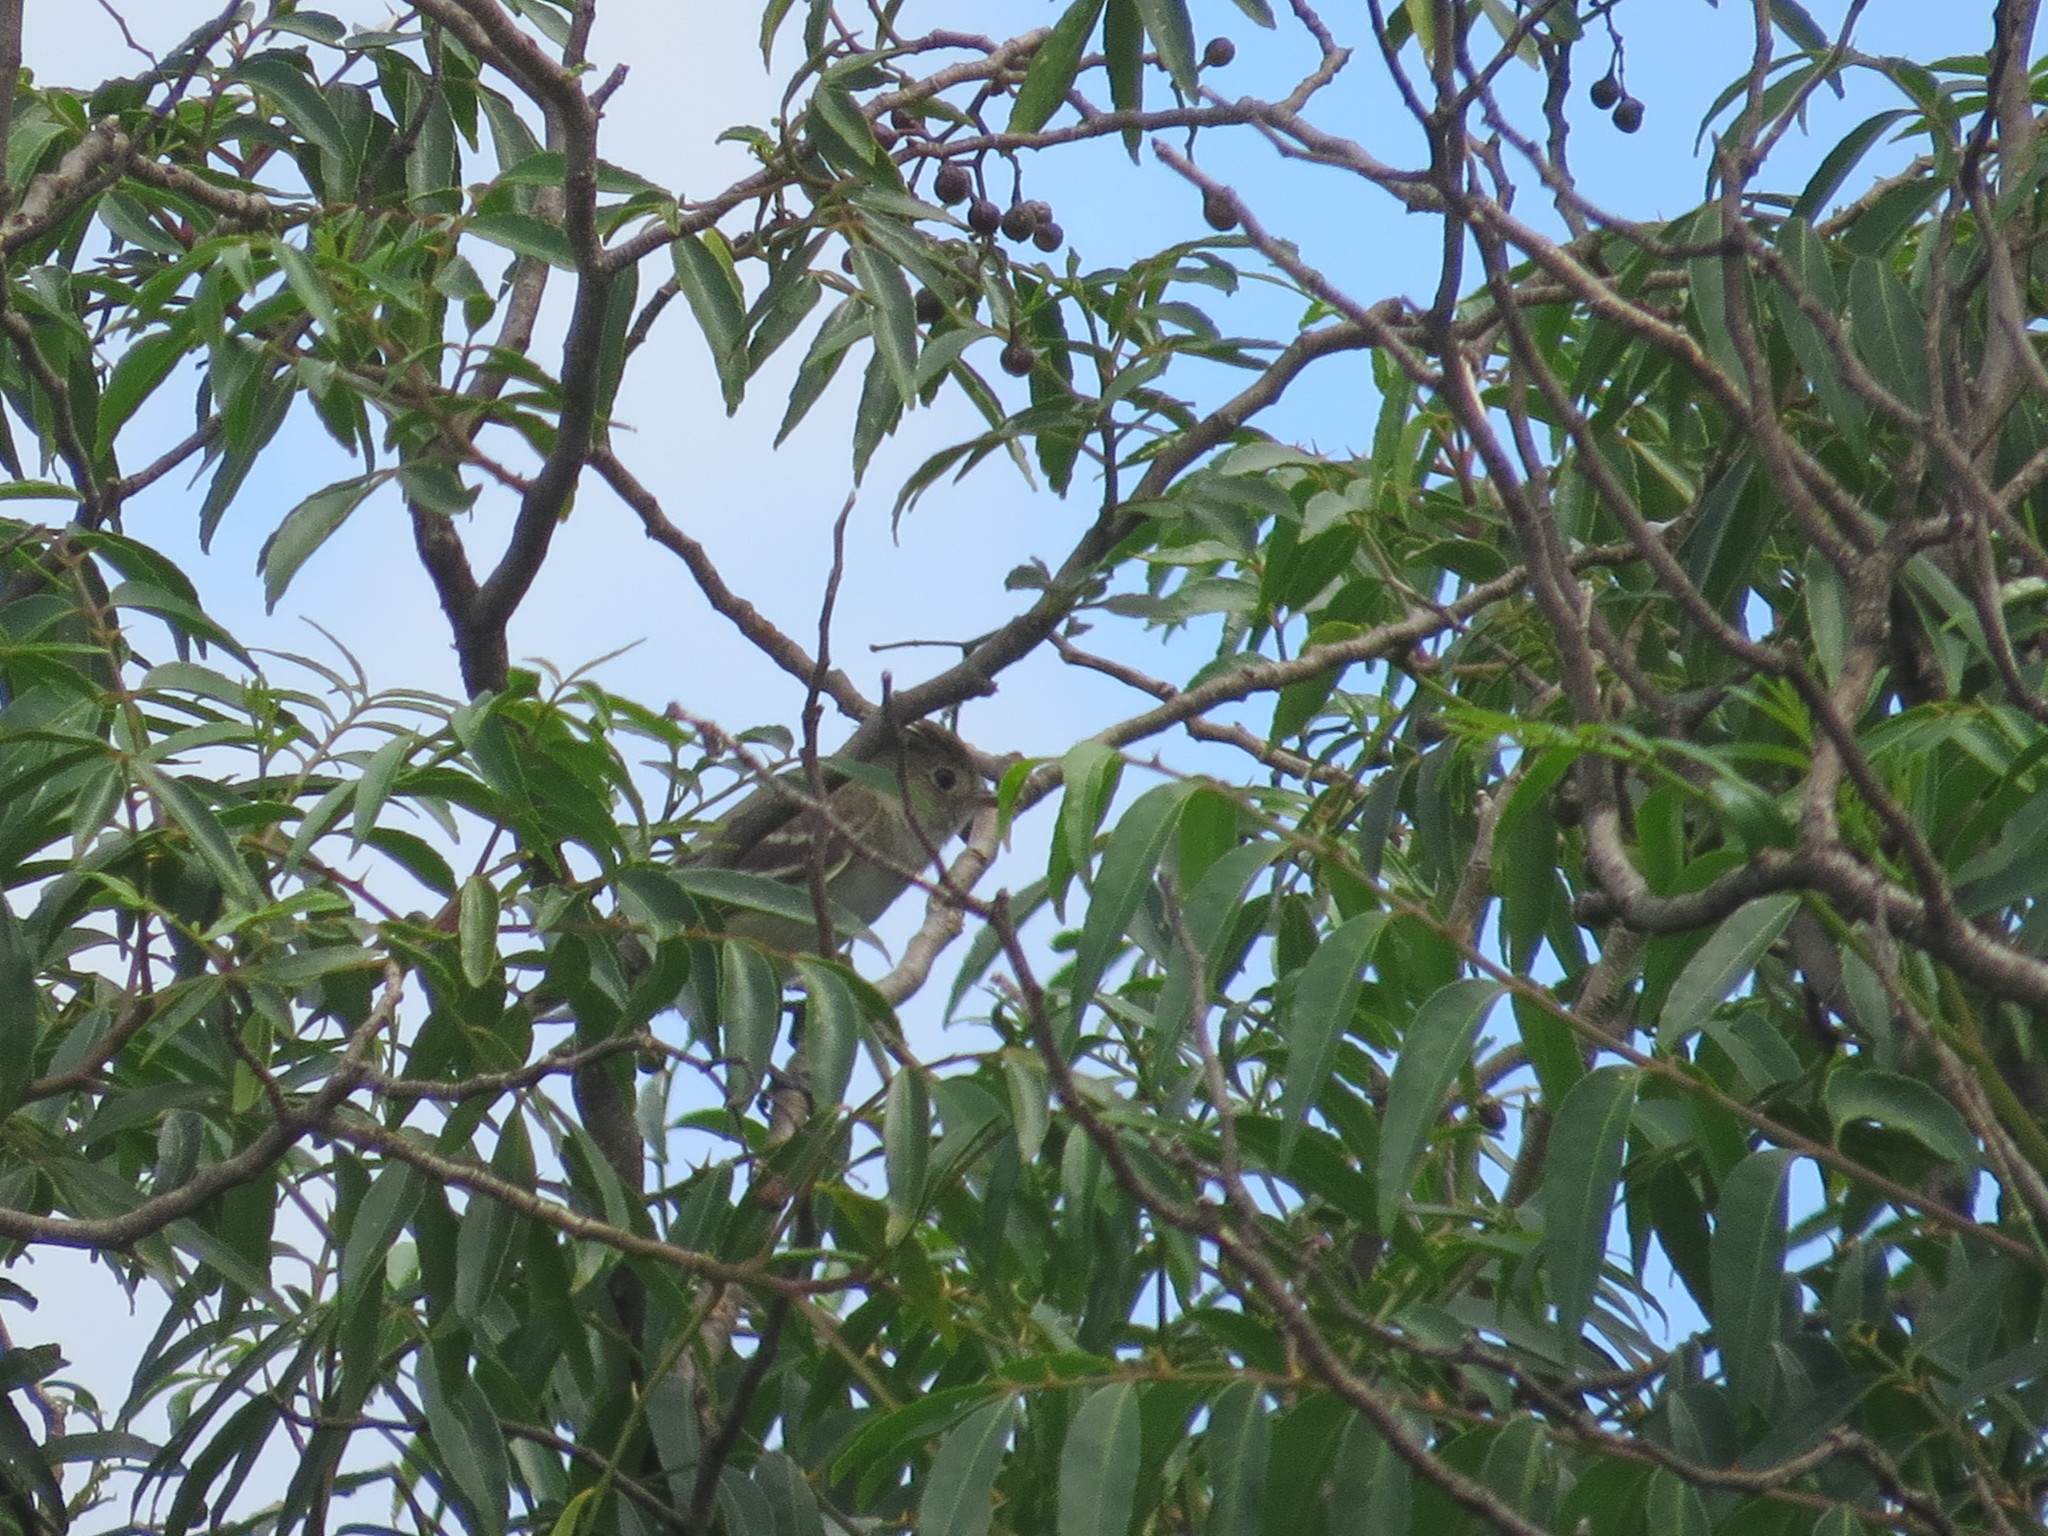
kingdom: Animalia
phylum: Chordata
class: Aves
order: Passeriformes
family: Tyrannidae
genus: Elaenia
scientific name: Elaenia parvirostris
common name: Small-billed elaenia
